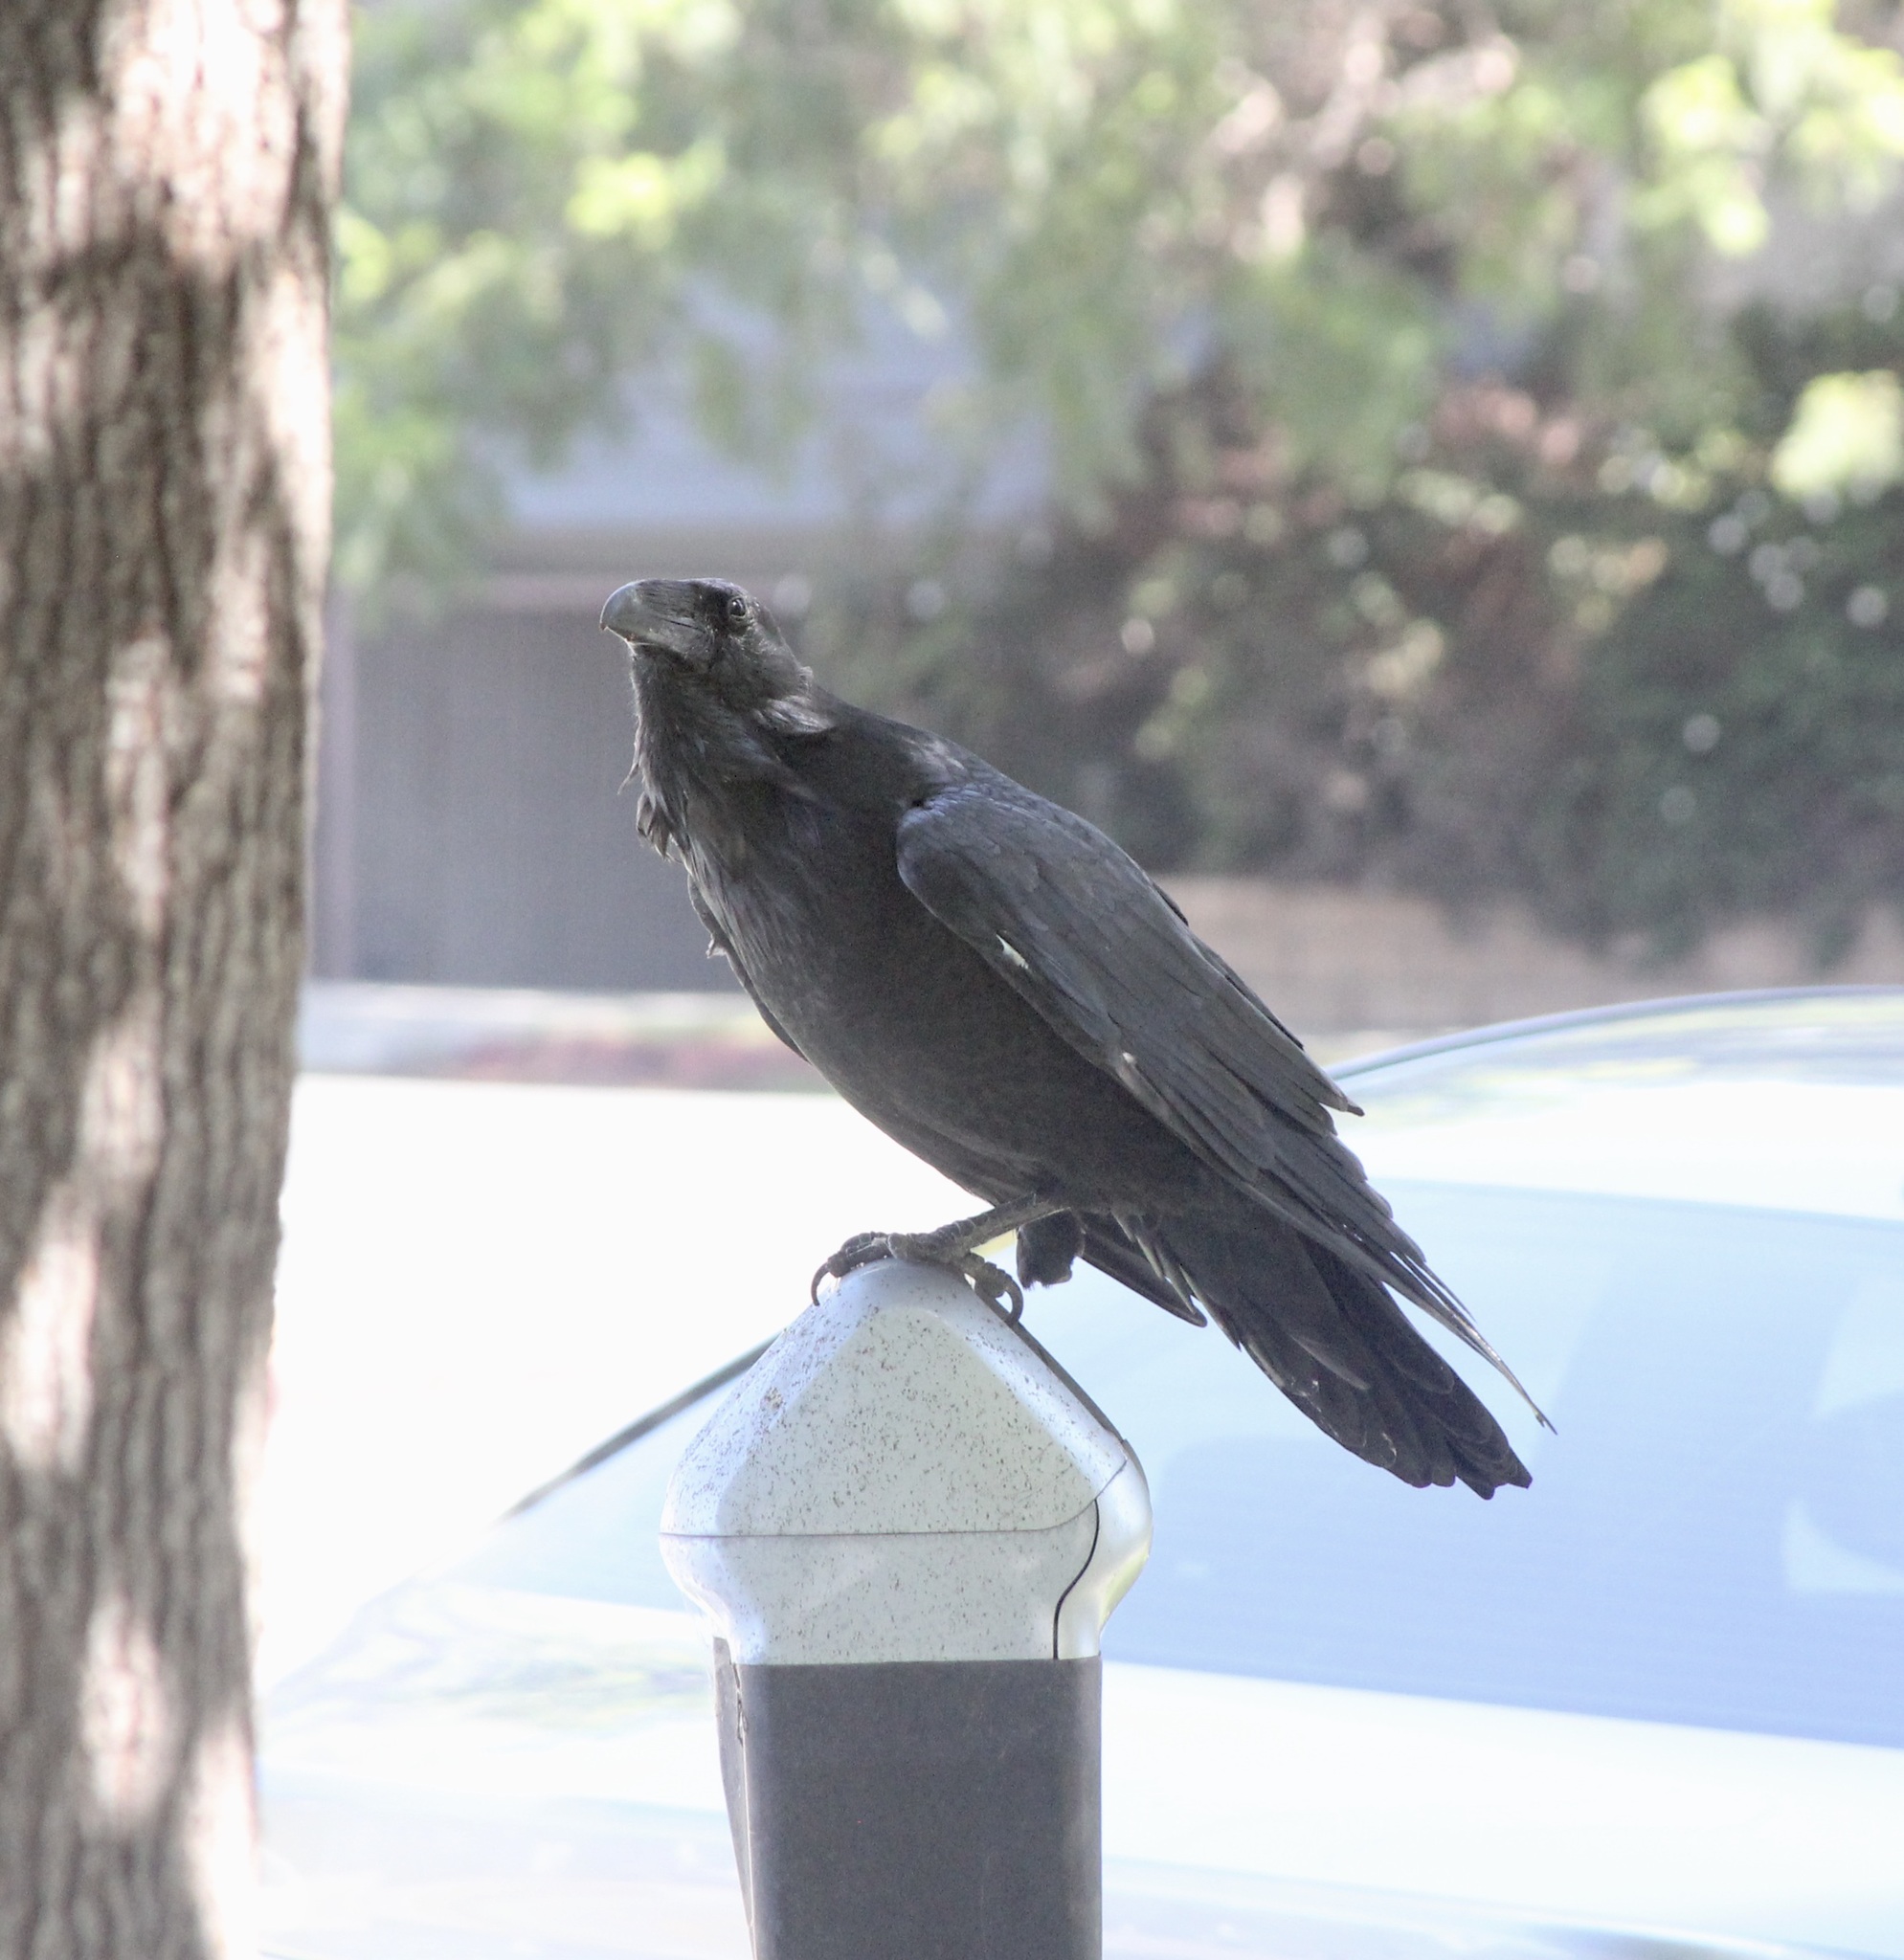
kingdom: Animalia
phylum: Chordata
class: Aves
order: Passeriformes
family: Corvidae
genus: Corvus
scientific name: Corvus corax
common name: Common raven
